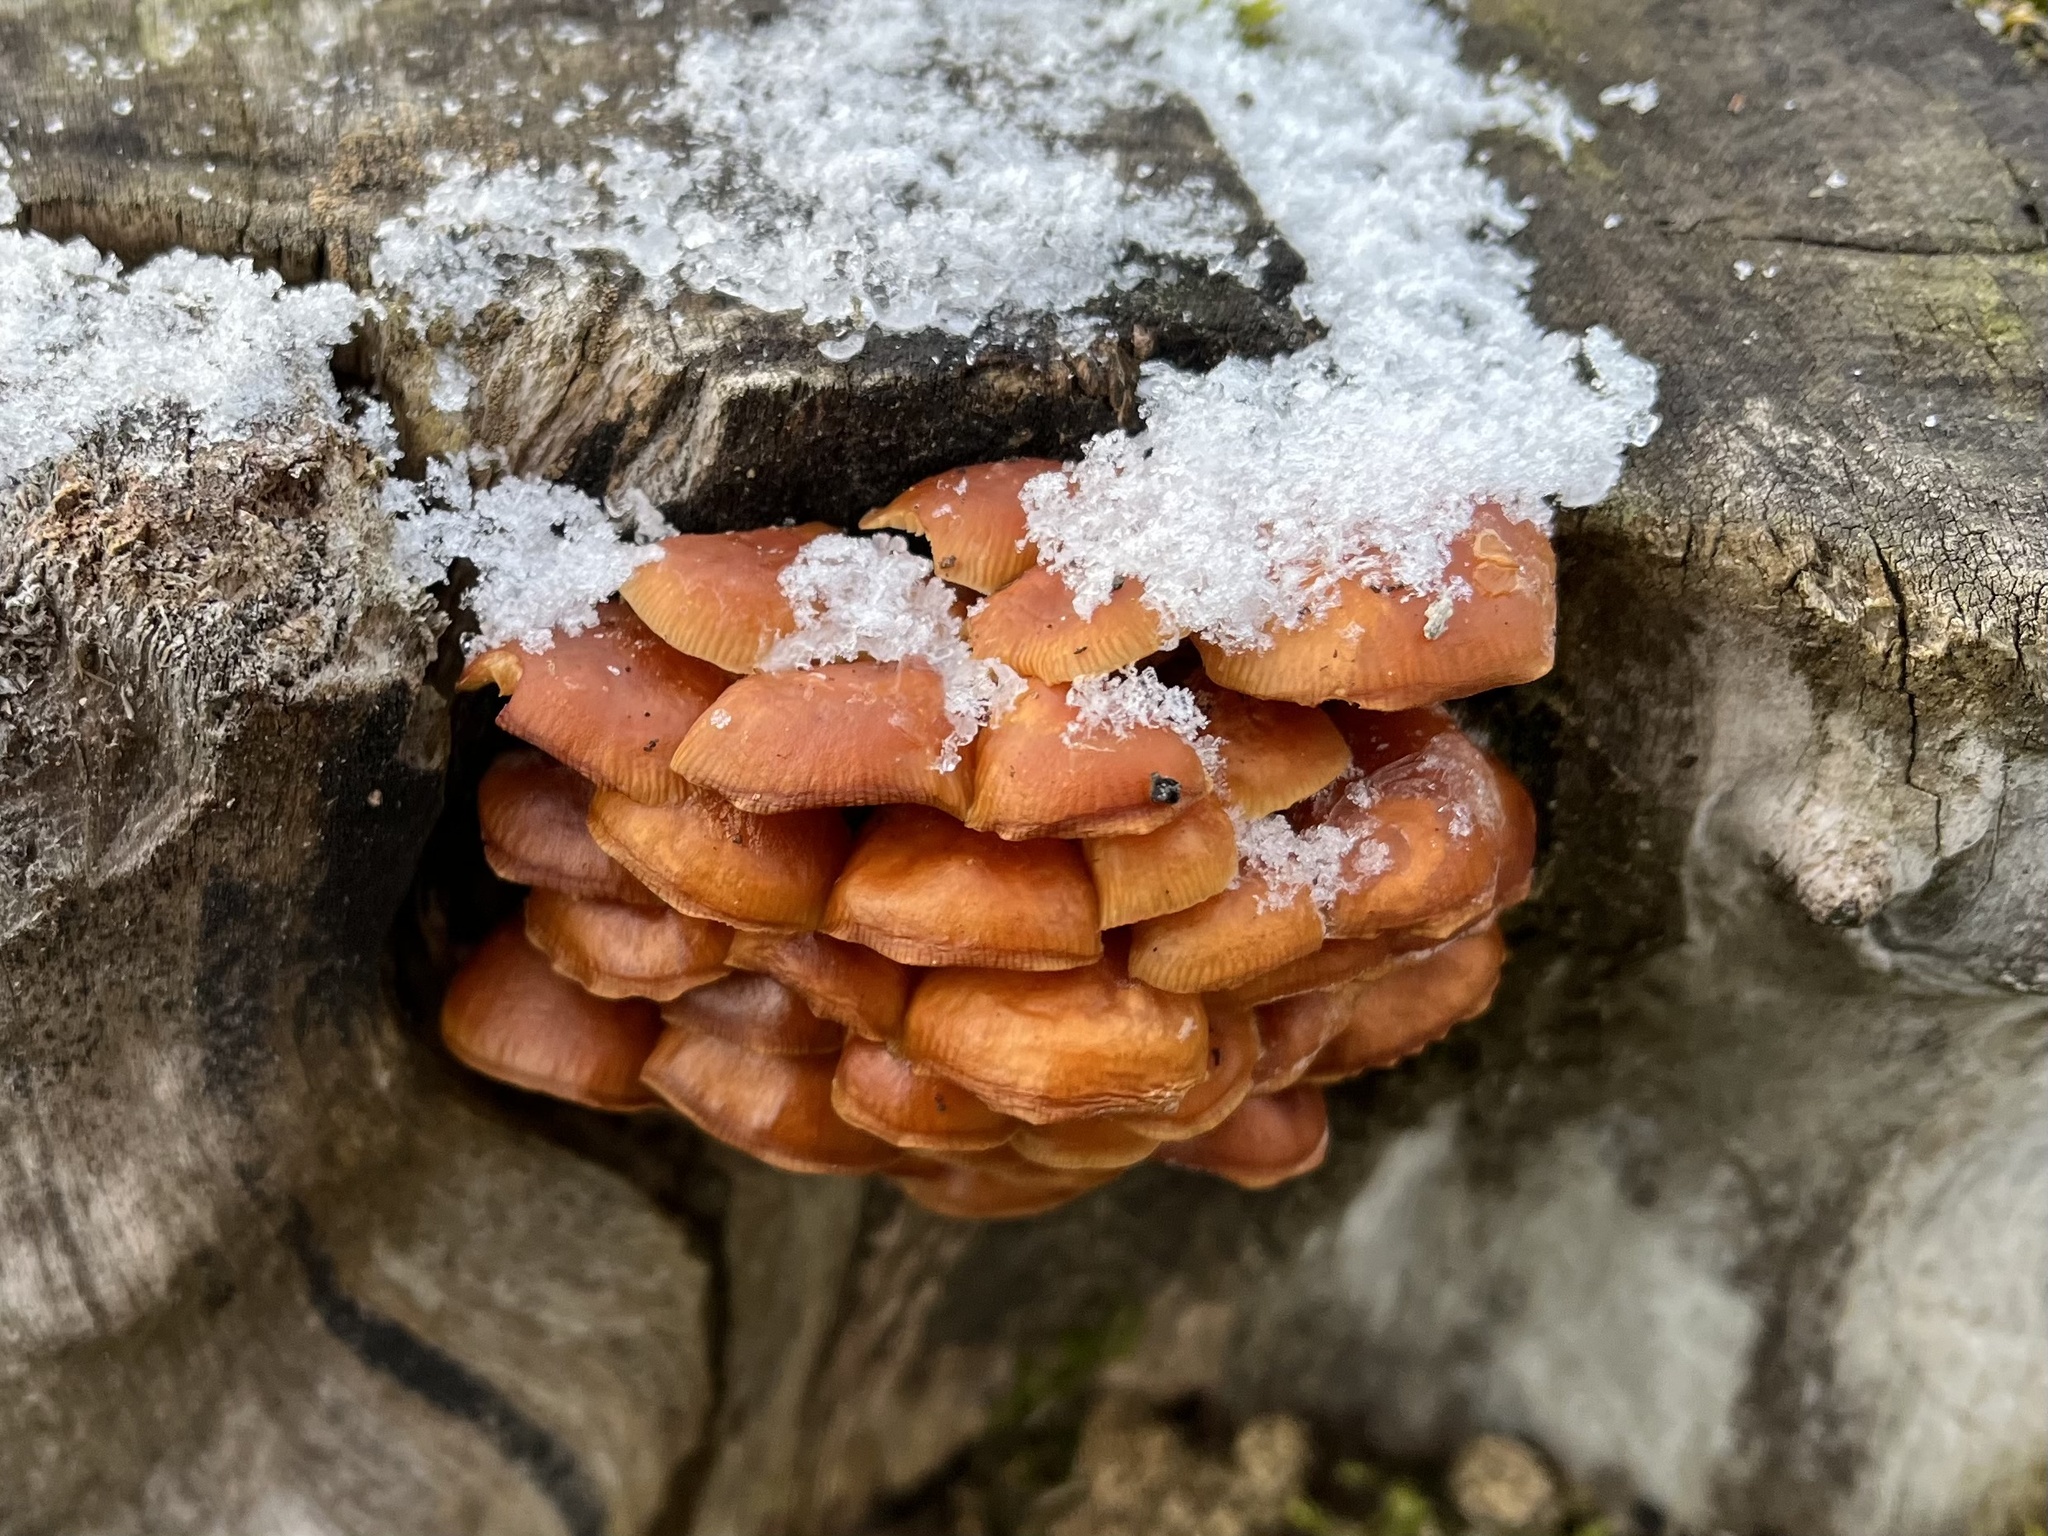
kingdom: Fungi
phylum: Basidiomycota
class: Agaricomycetes
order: Agaricales
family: Physalacriaceae
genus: Flammulina
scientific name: Flammulina
